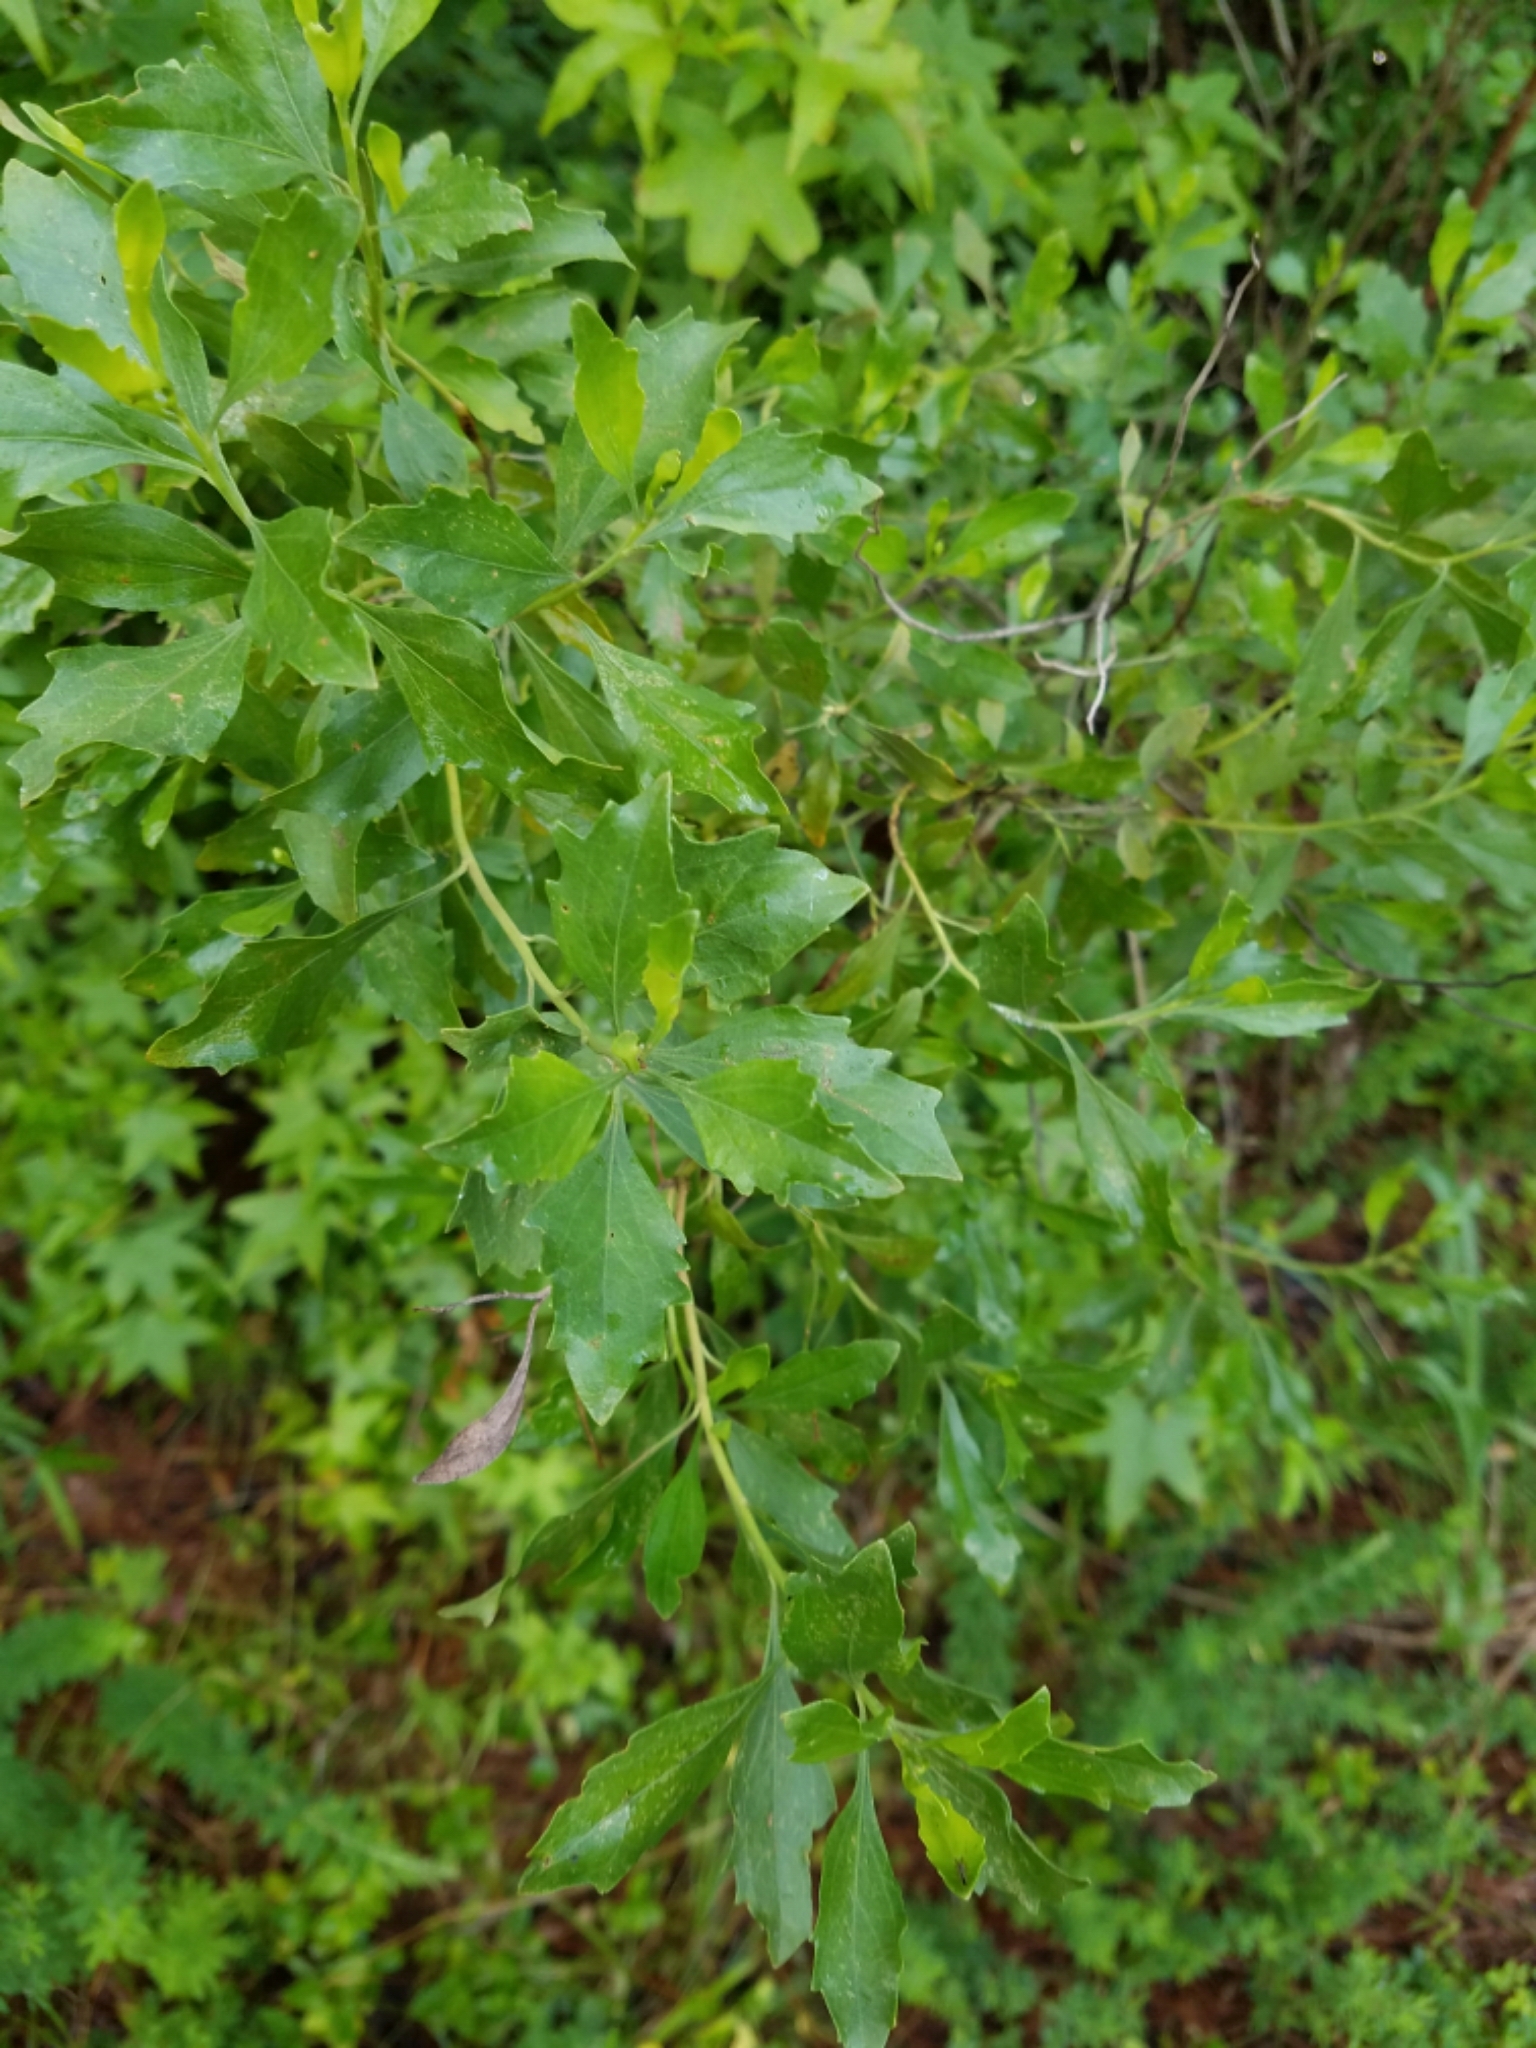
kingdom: Plantae
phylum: Tracheophyta
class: Magnoliopsida
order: Asterales
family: Asteraceae
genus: Baccharis
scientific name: Baccharis halimifolia
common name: Eastern baccharis
